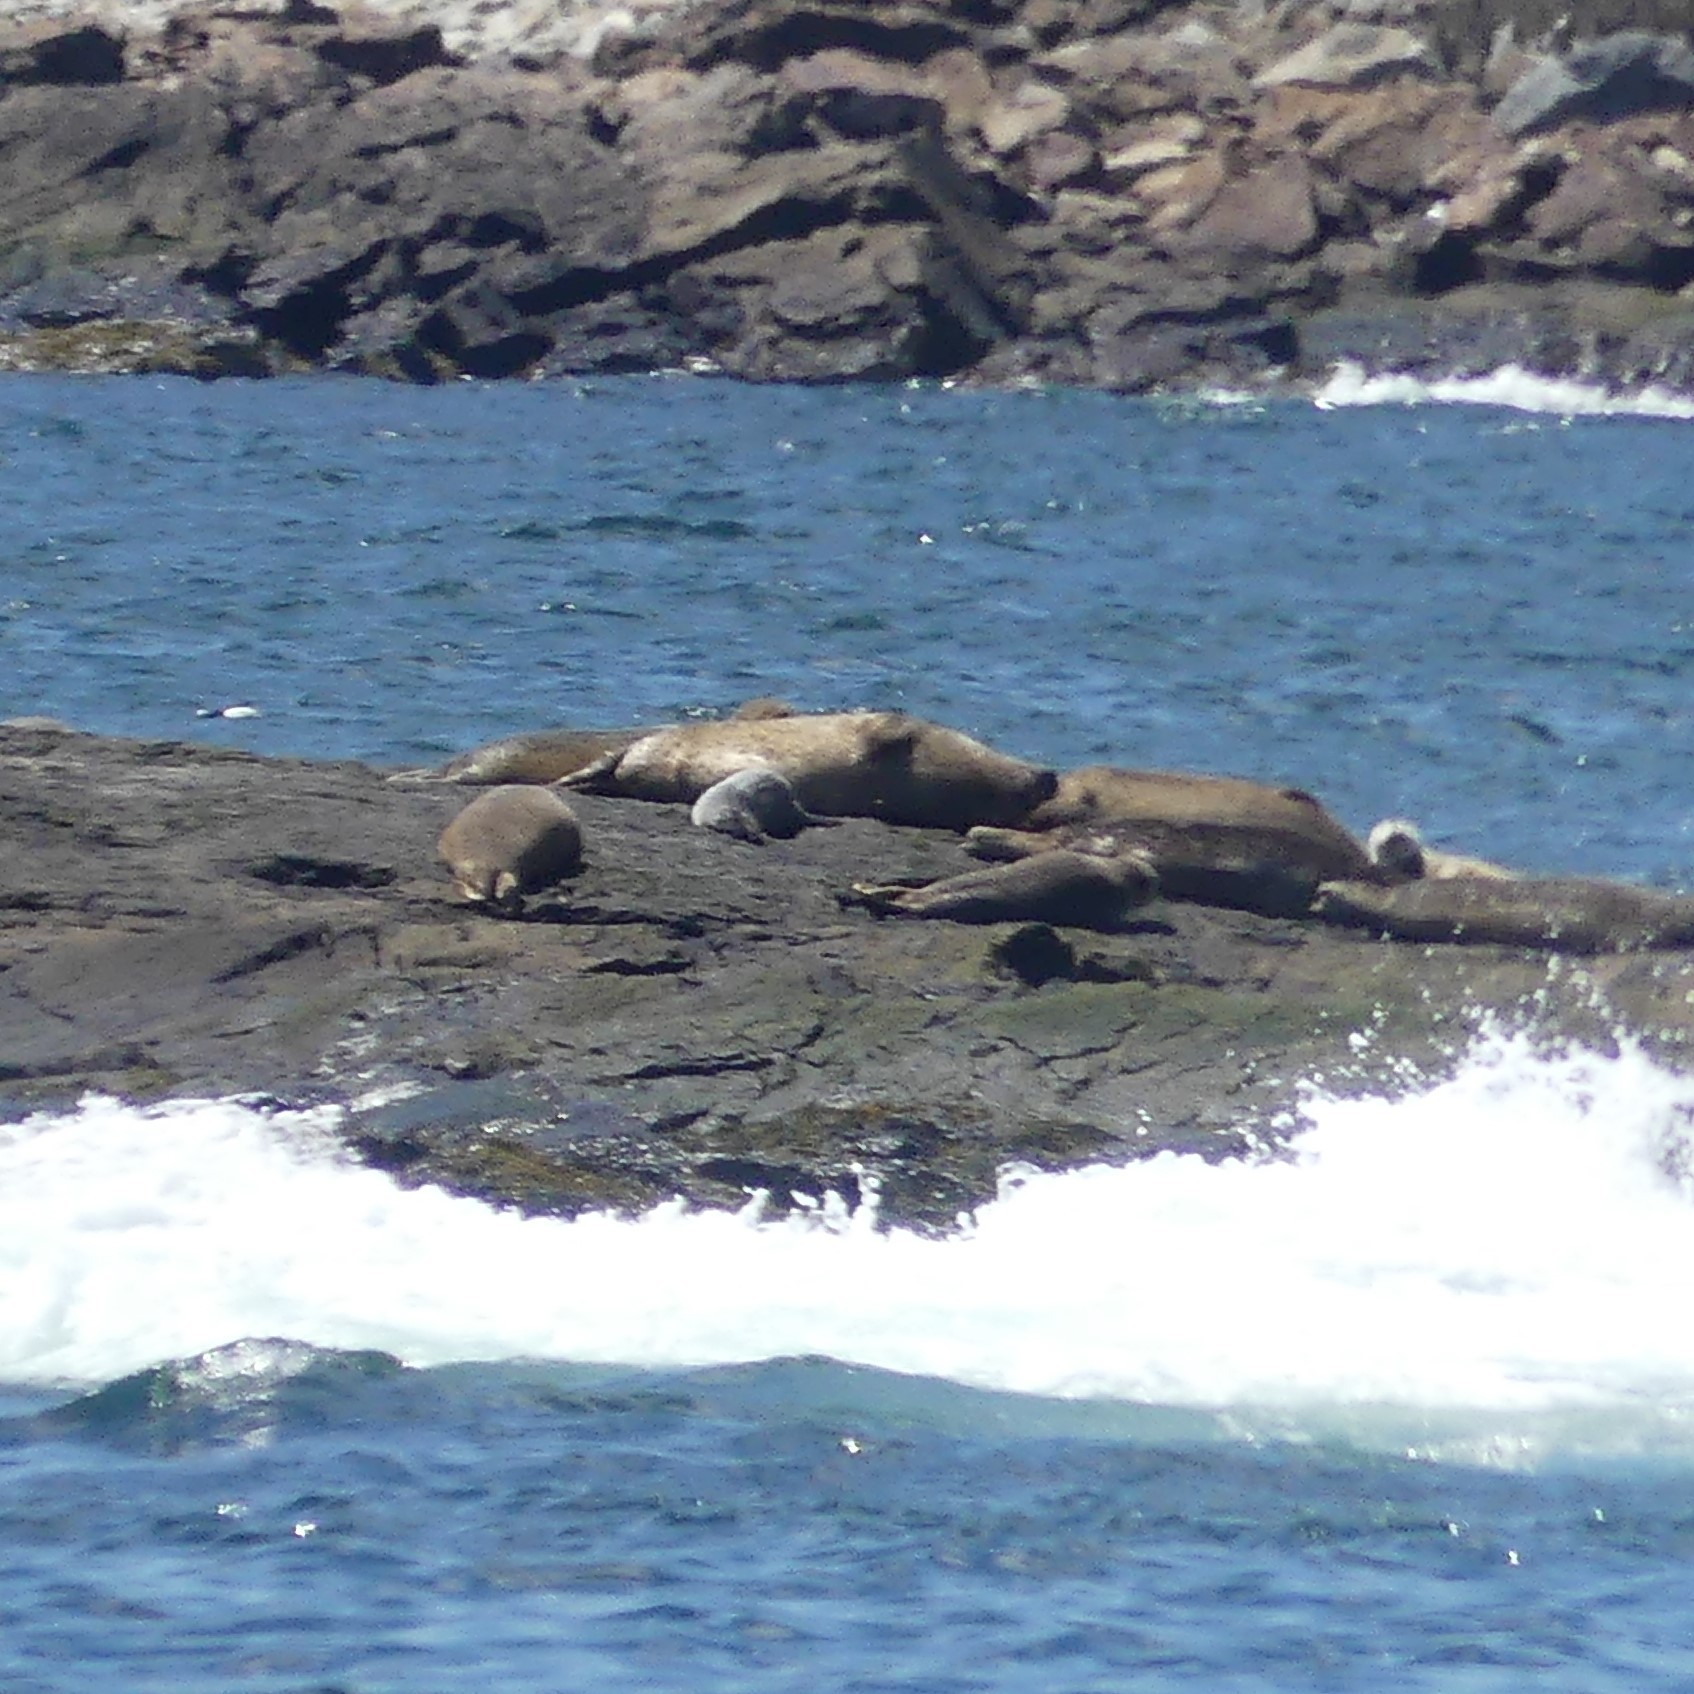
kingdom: Animalia
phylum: Chordata
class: Mammalia
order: Carnivora
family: Phocidae
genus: Phoca
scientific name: Phoca vitulina
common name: Harbor seal
